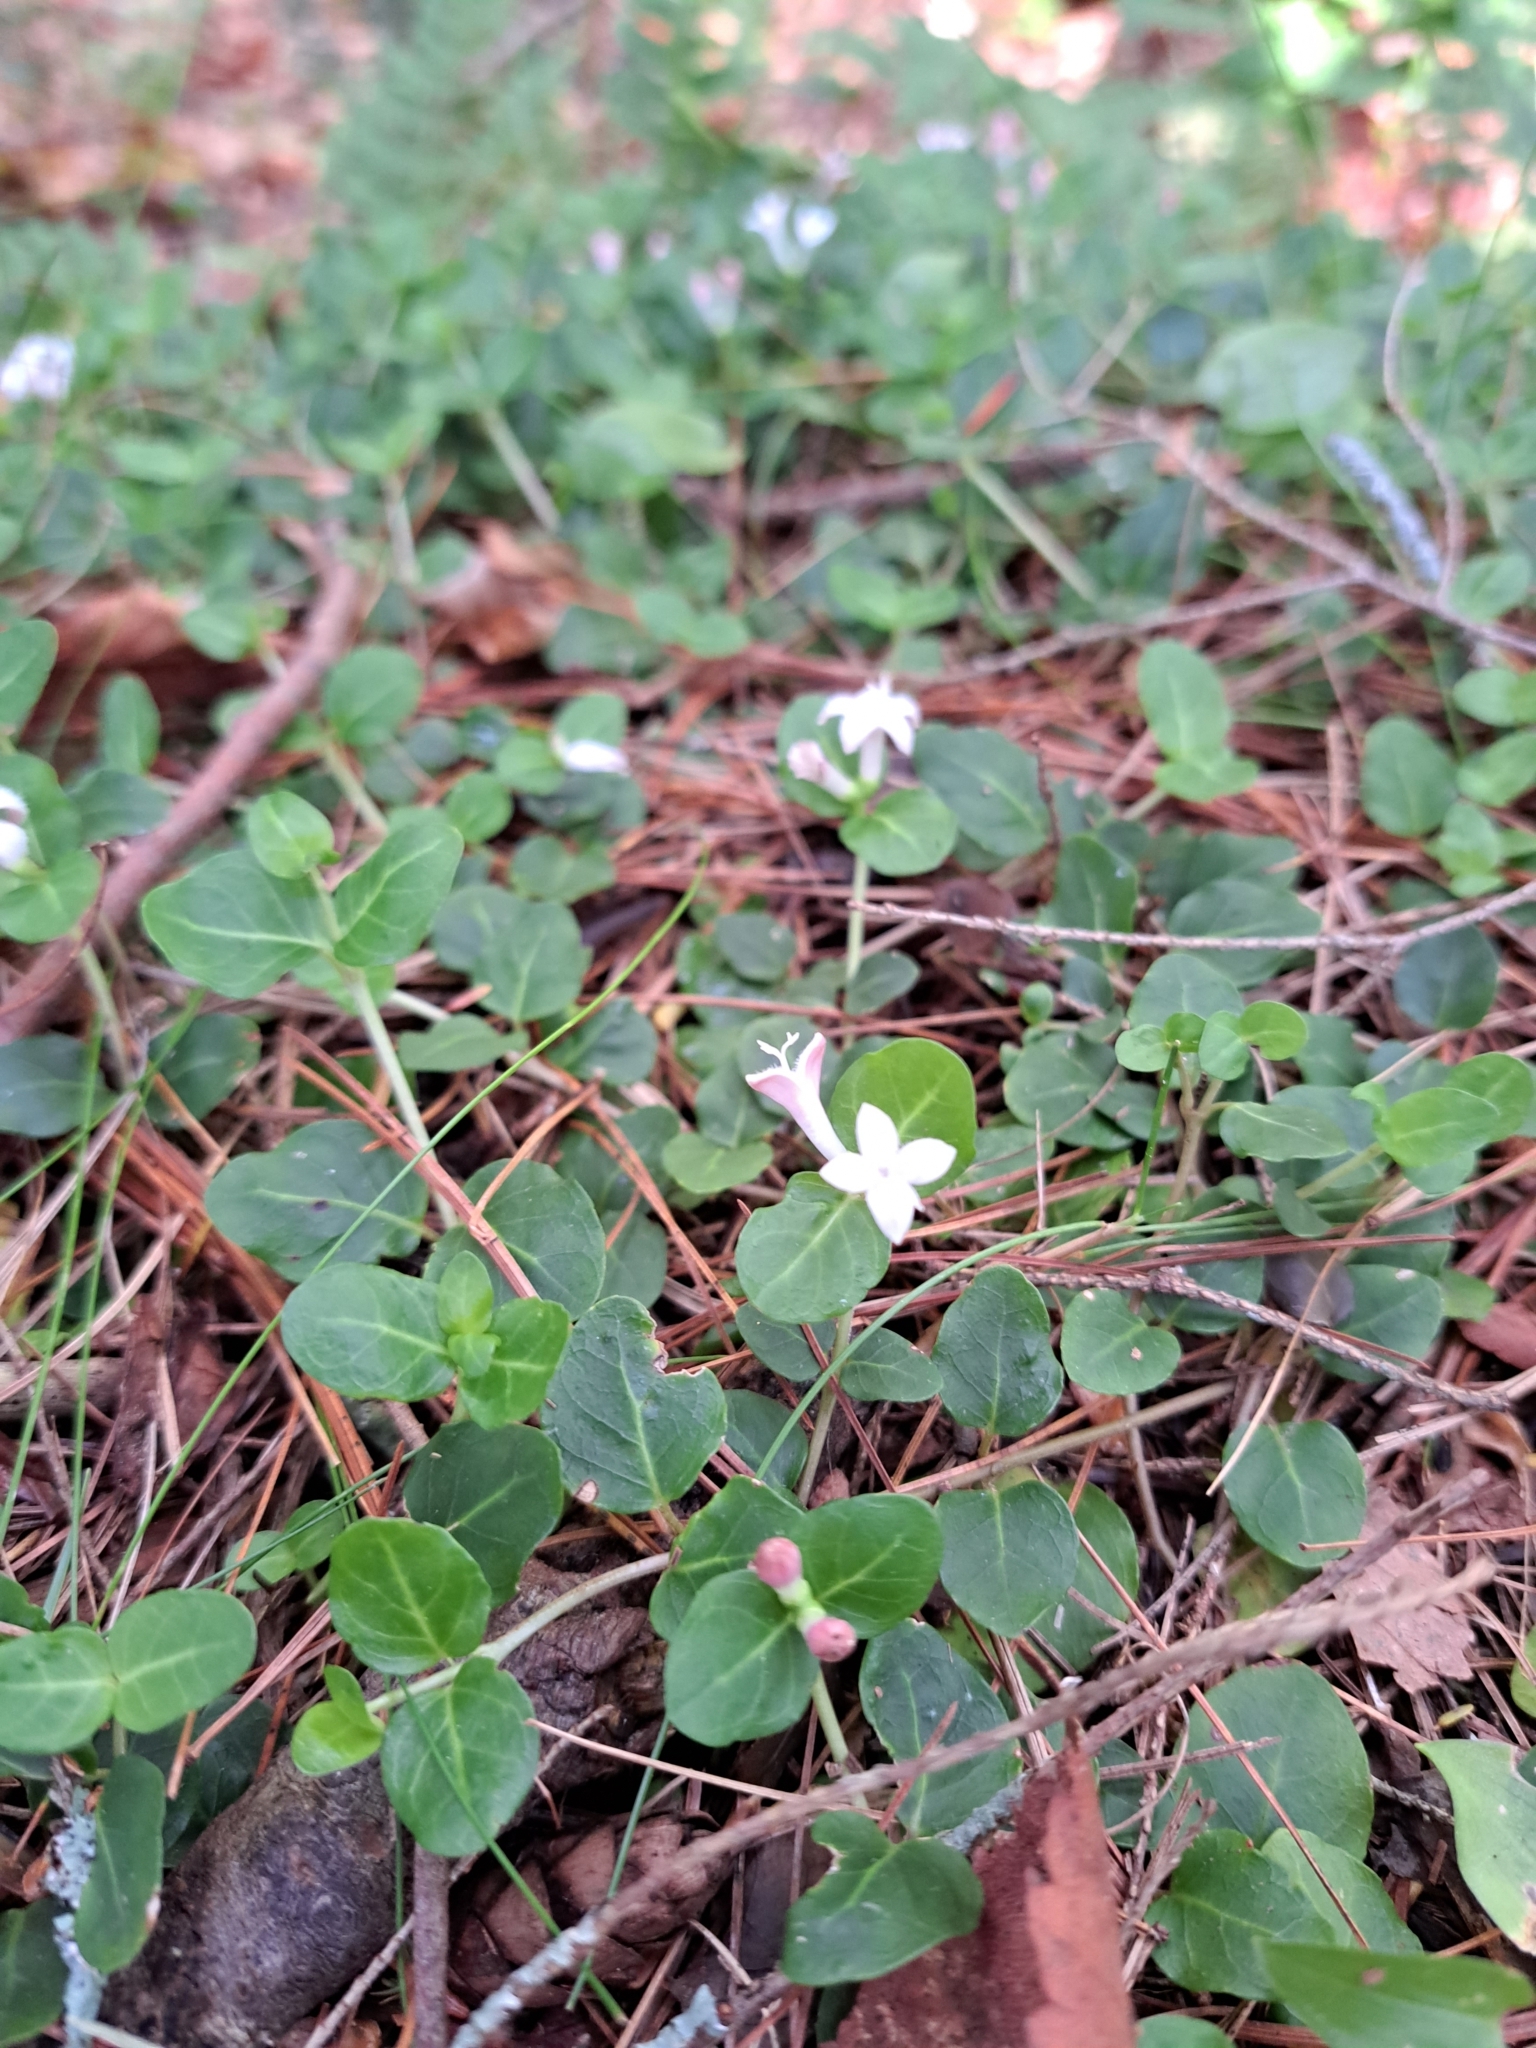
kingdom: Plantae
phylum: Tracheophyta
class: Magnoliopsida
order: Gentianales
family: Rubiaceae
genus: Mitchella
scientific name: Mitchella repens
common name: Partridge-berry
